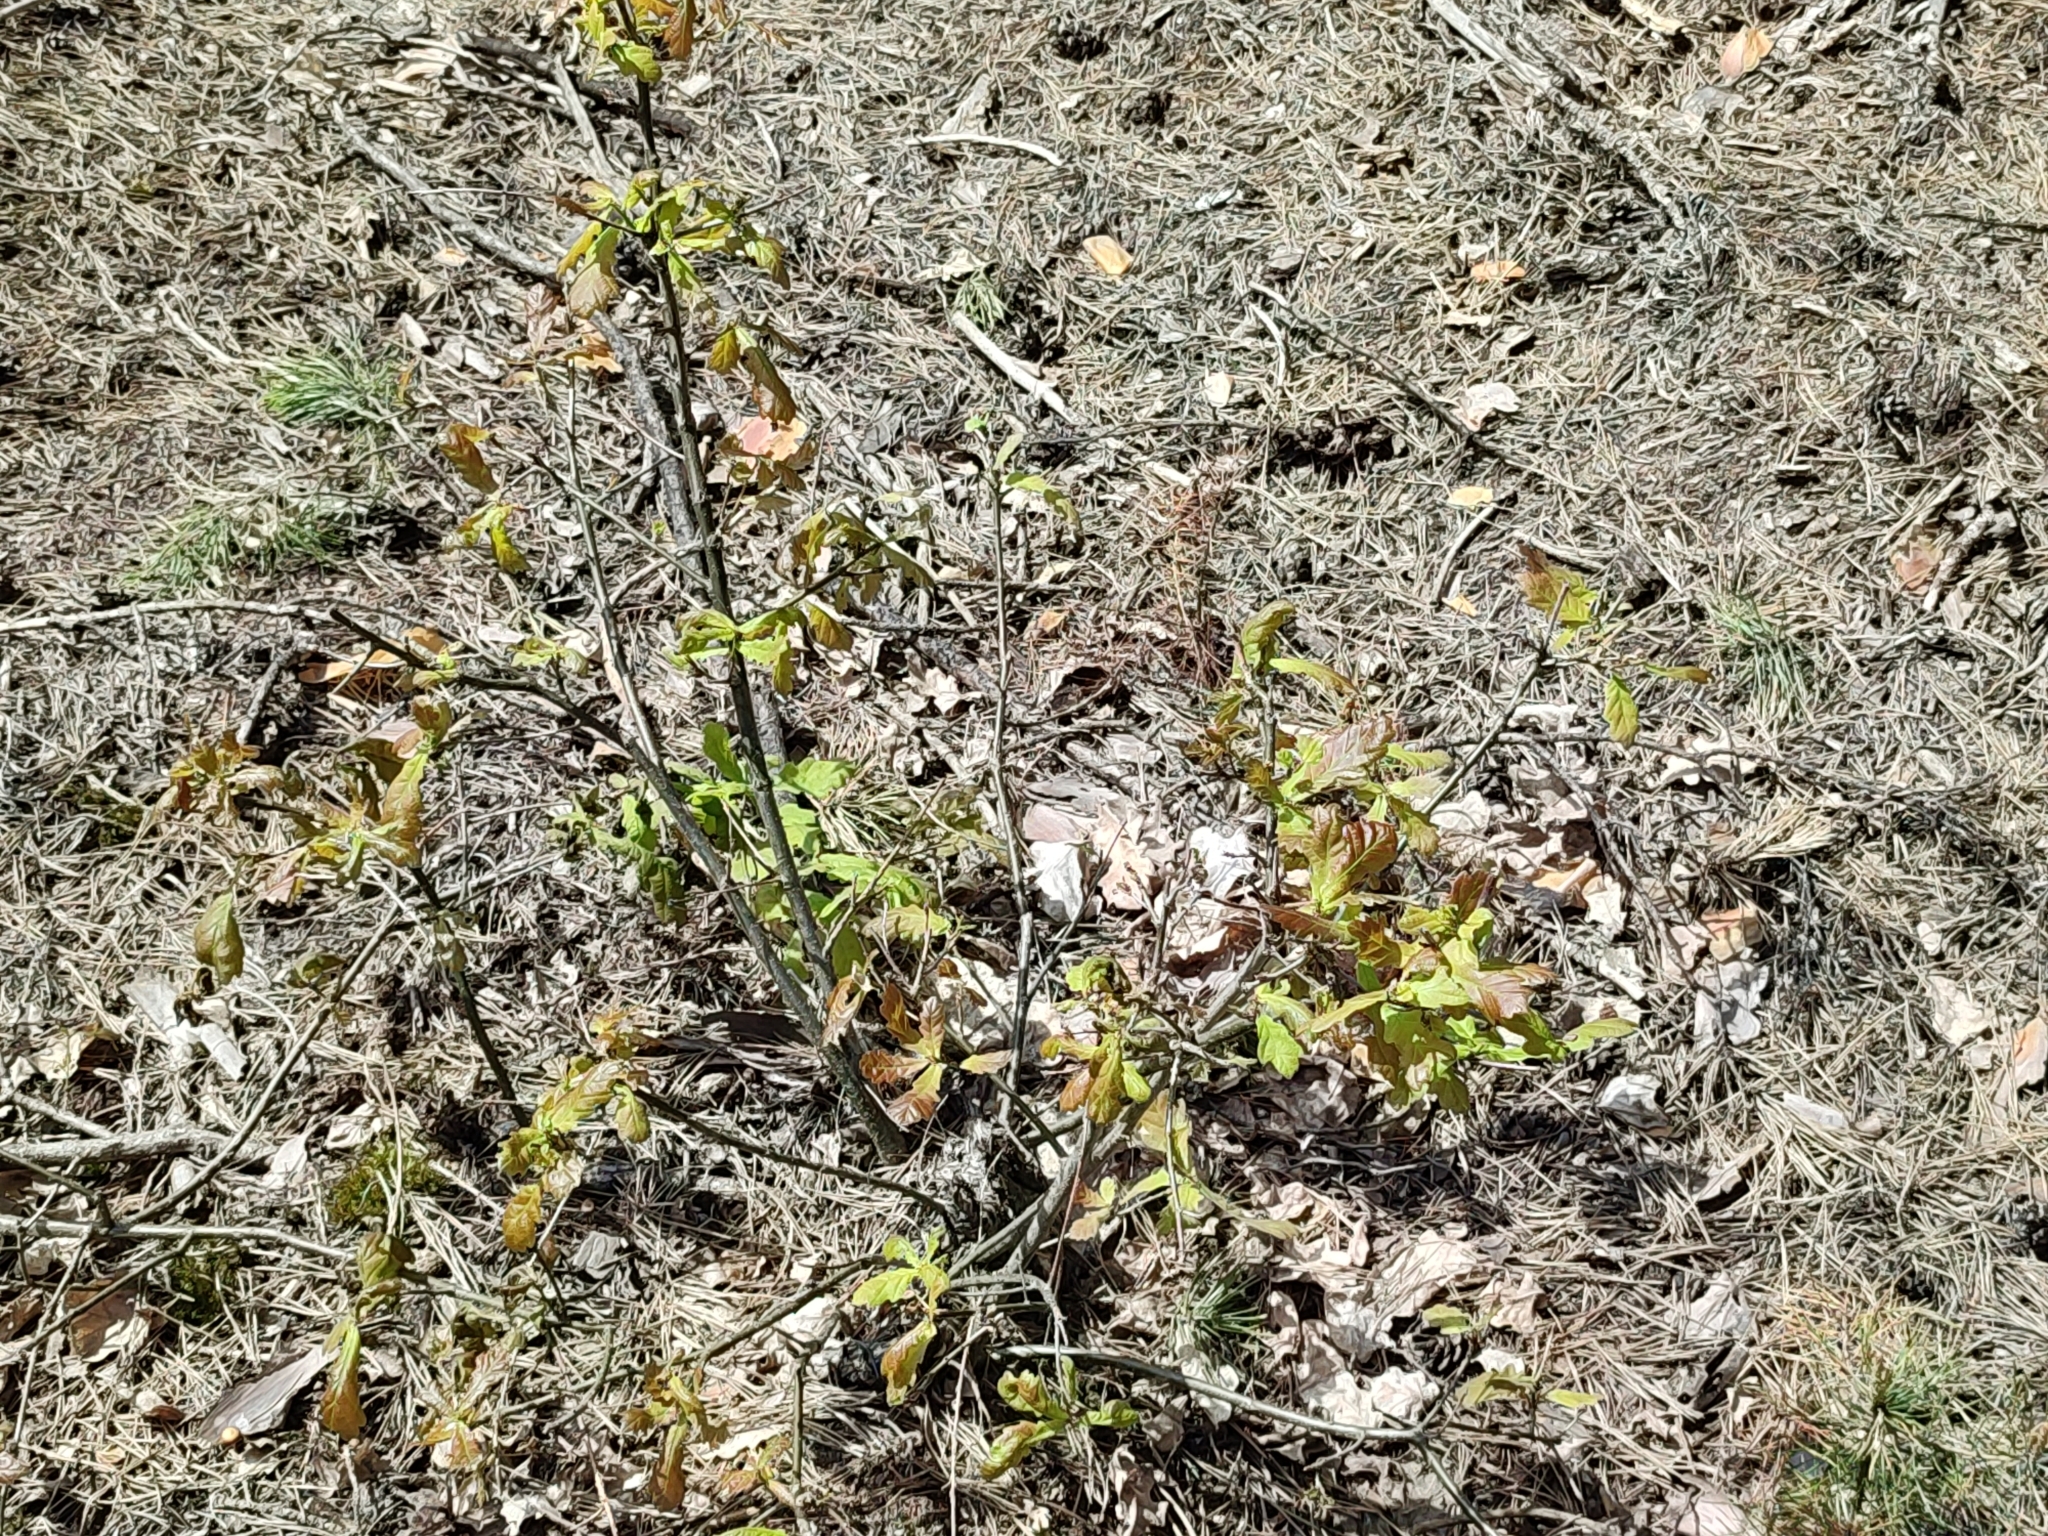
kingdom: Plantae
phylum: Tracheophyta
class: Magnoliopsida
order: Fagales
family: Fagaceae
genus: Quercus
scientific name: Quercus robur
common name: Pedunculate oak
